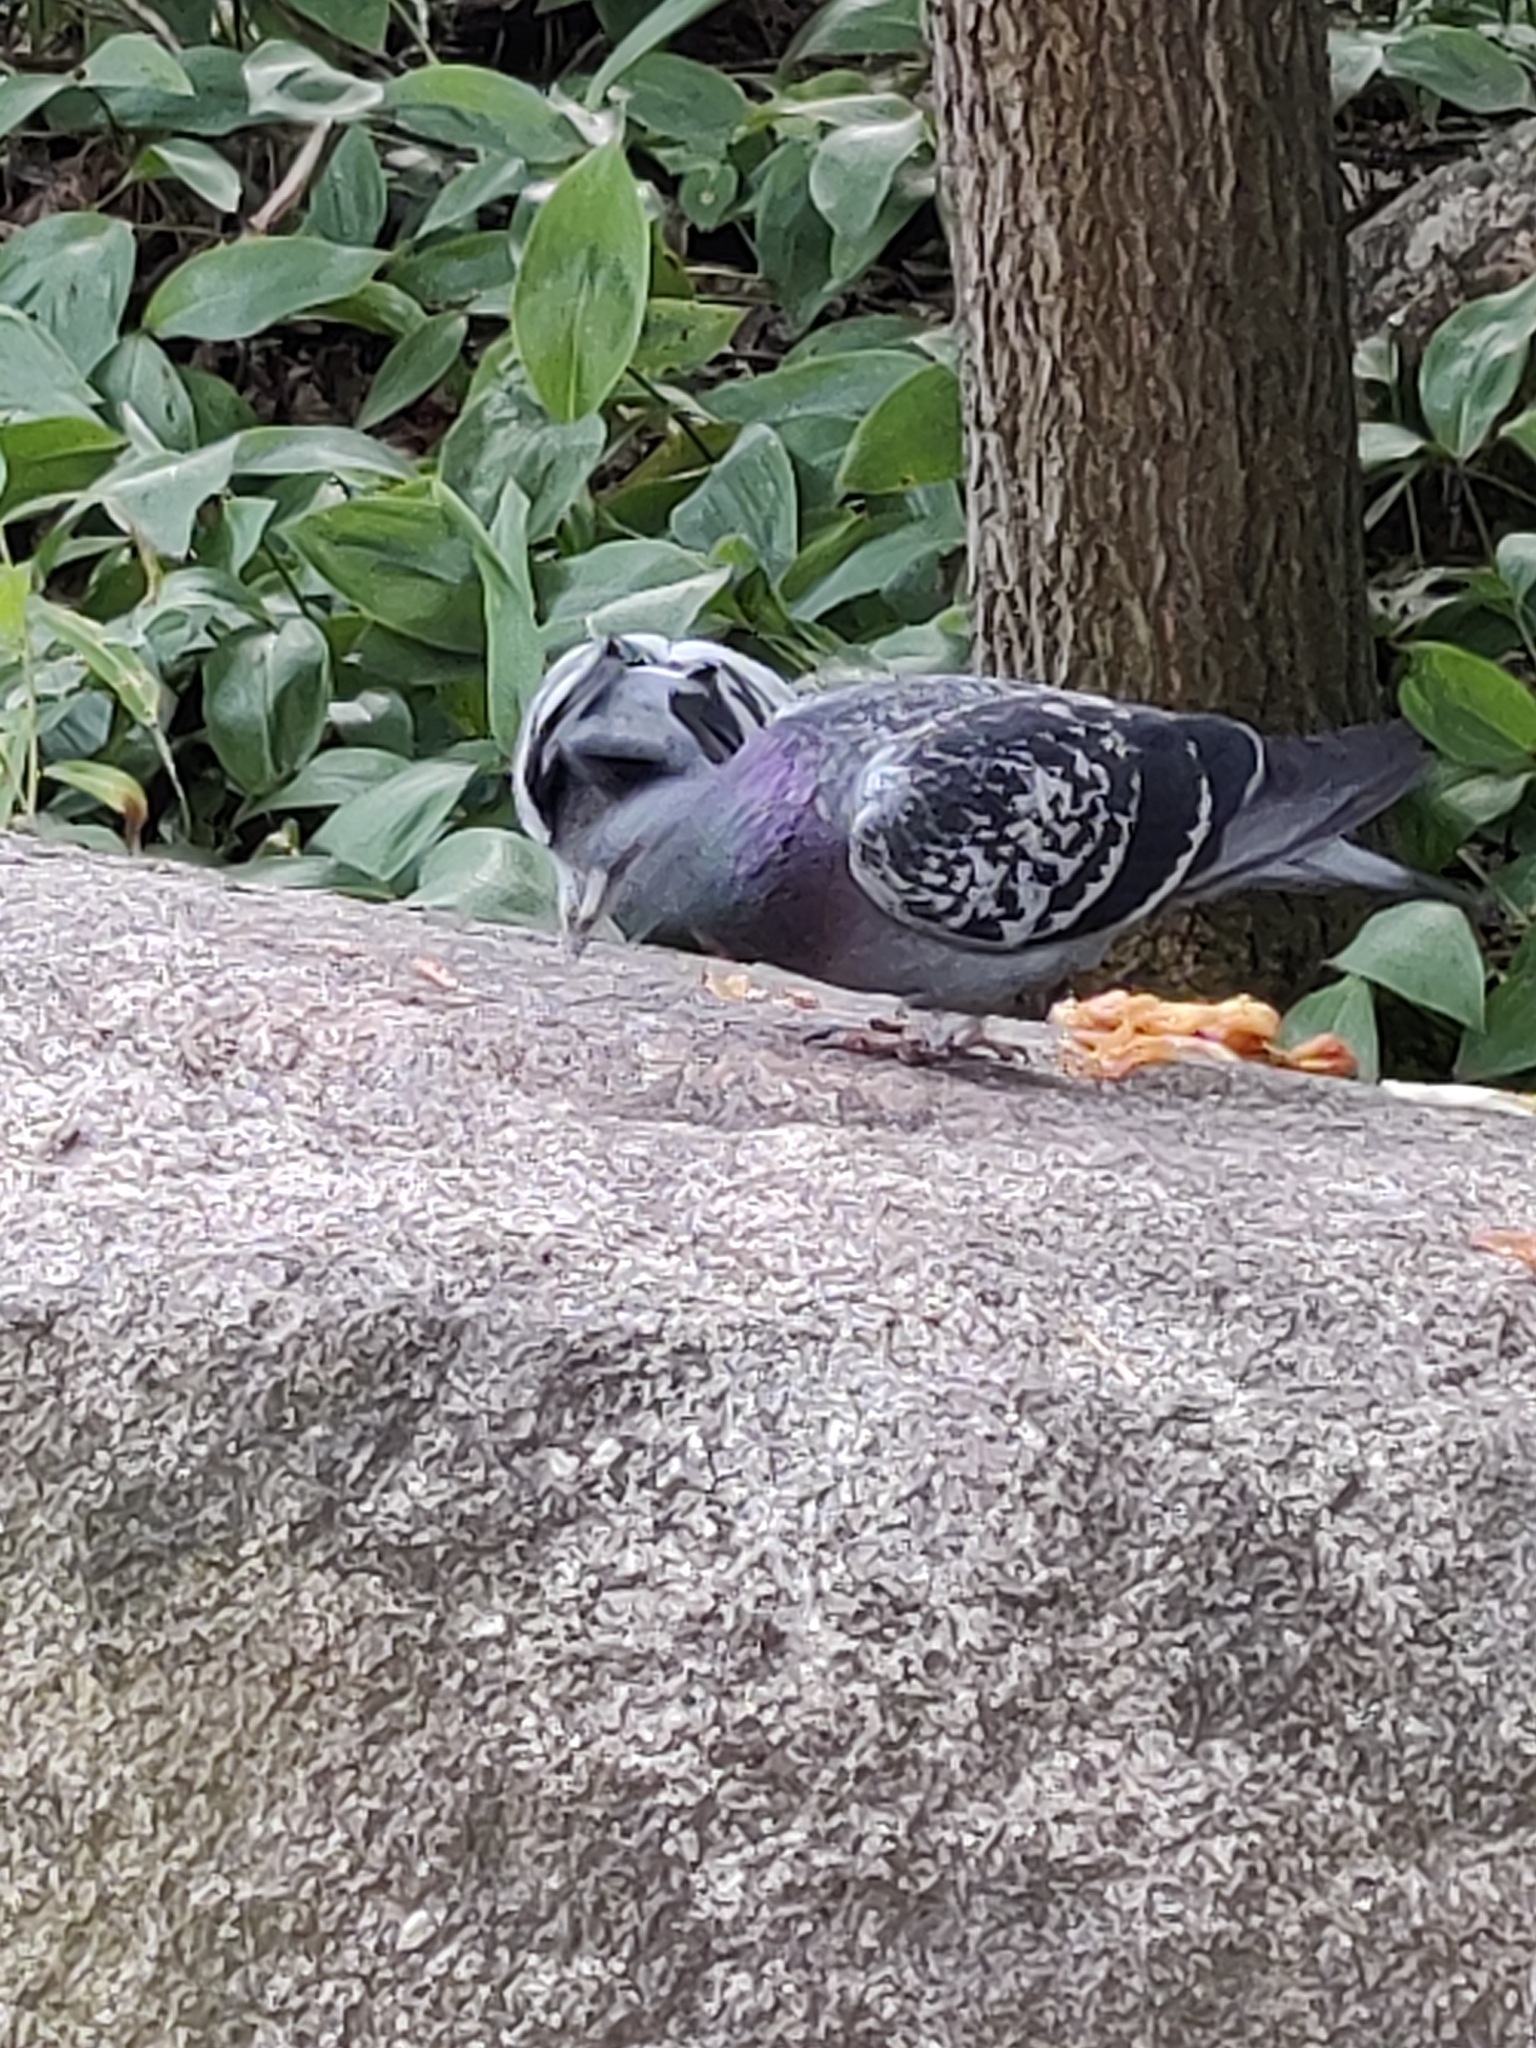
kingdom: Animalia
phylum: Chordata
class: Aves
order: Columbiformes
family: Columbidae
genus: Columba
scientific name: Columba livia
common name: Rock pigeon
